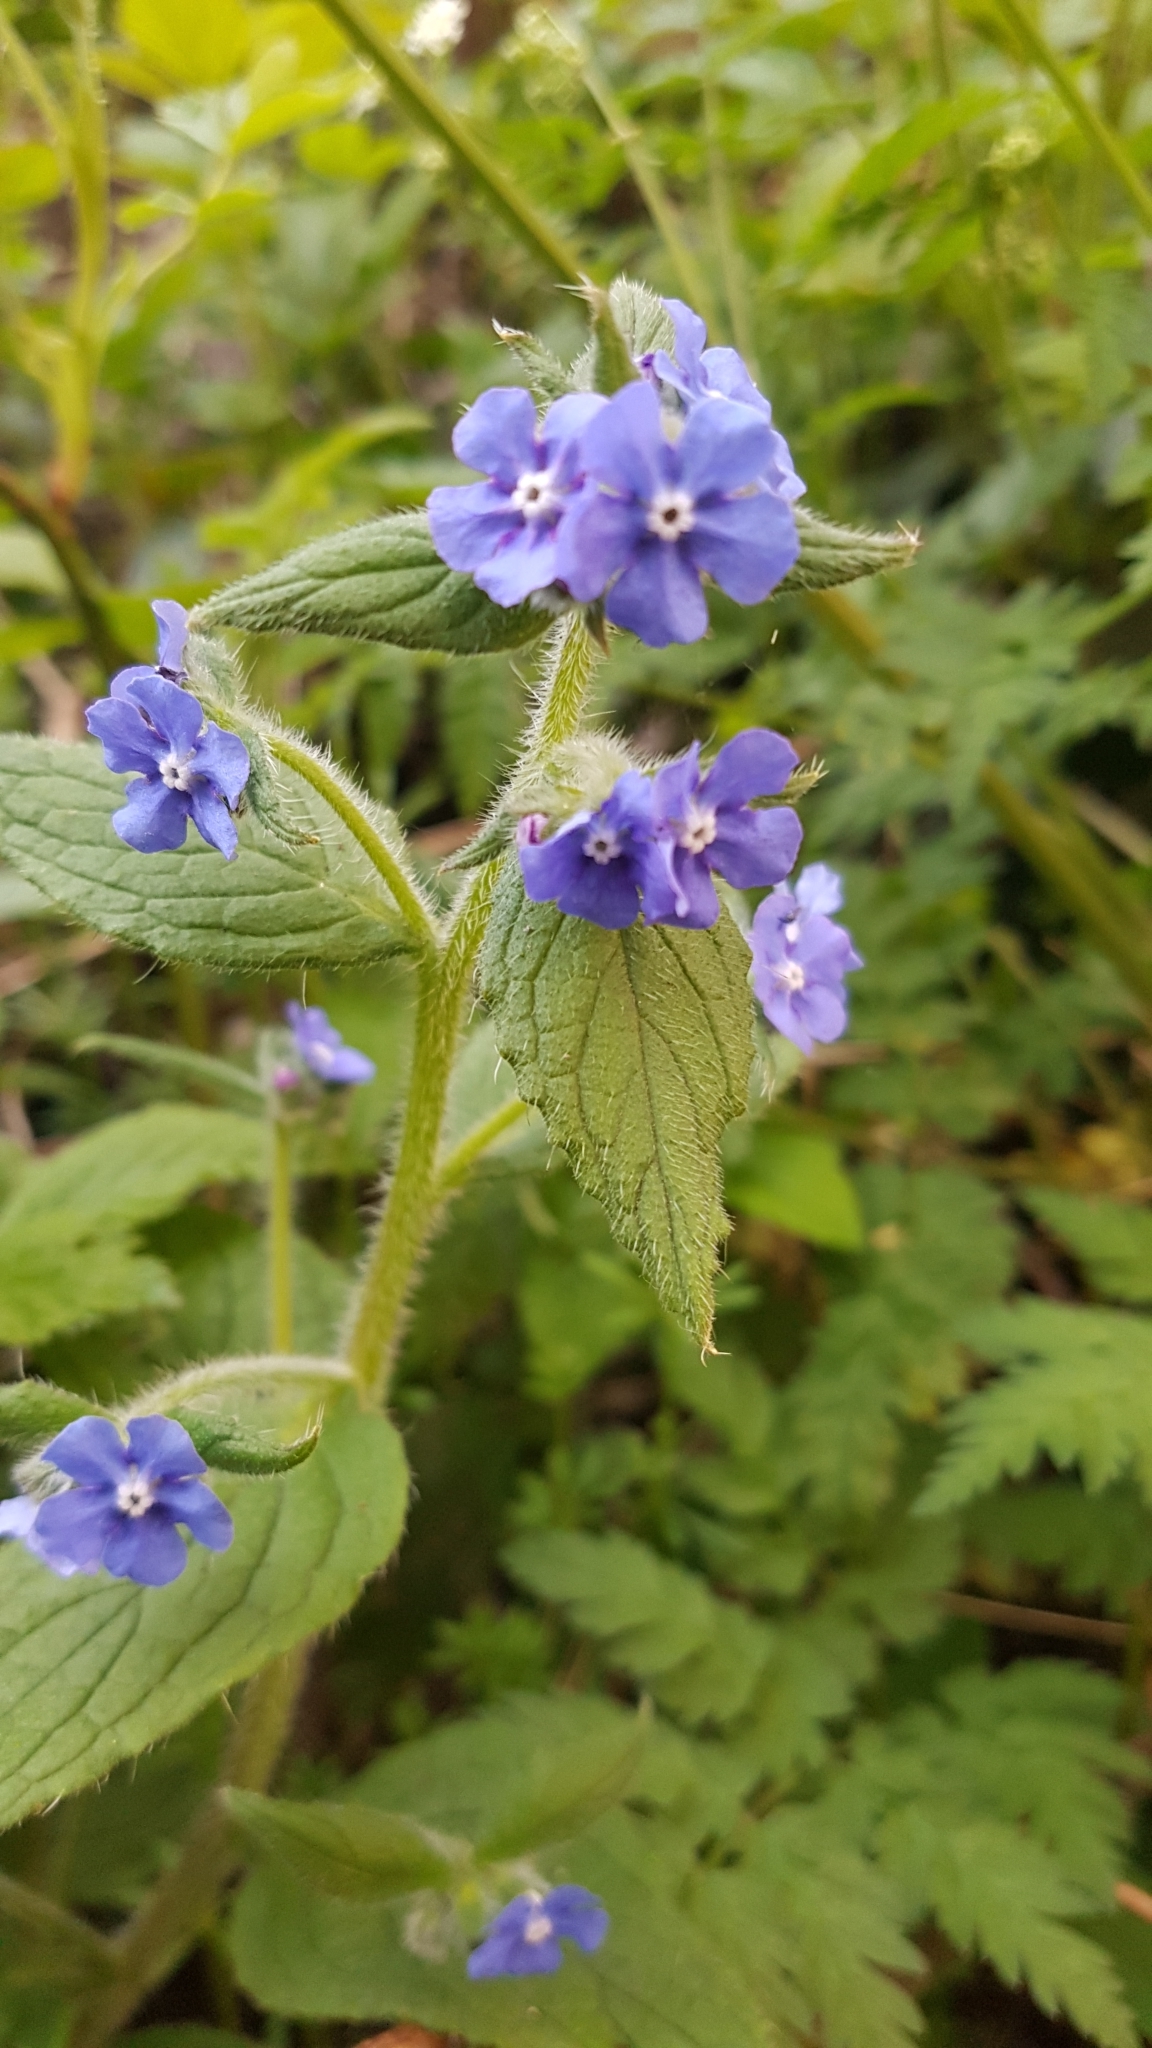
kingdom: Plantae
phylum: Tracheophyta
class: Magnoliopsida
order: Boraginales
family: Boraginaceae
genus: Pentaglottis
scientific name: Pentaglottis sempervirens
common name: Green alkanet
